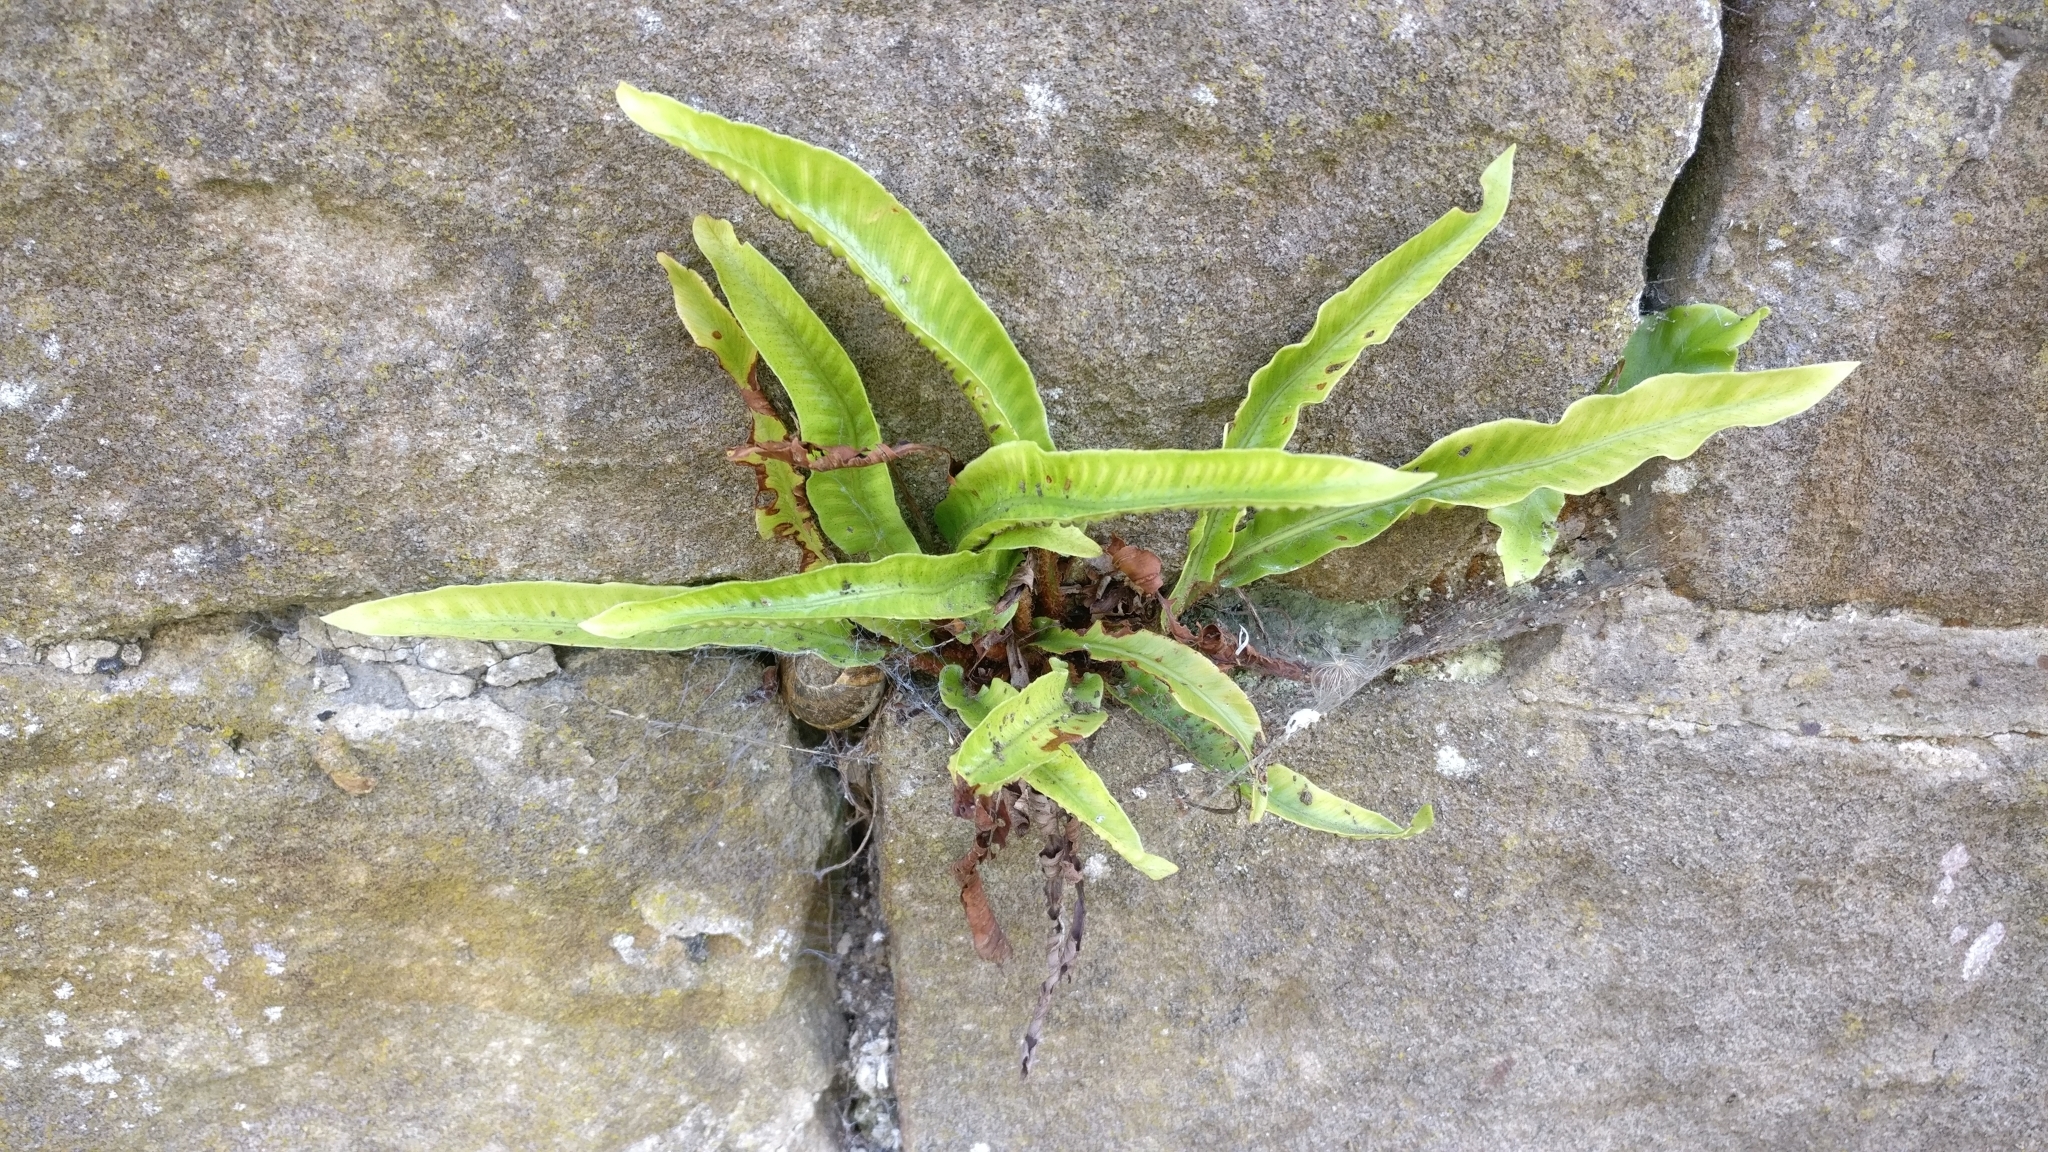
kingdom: Plantae
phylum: Tracheophyta
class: Polypodiopsida
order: Polypodiales
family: Aspleniaceae
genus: Asplenium
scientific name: Asplenium scolopendrium
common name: Hart's-tongue fern
